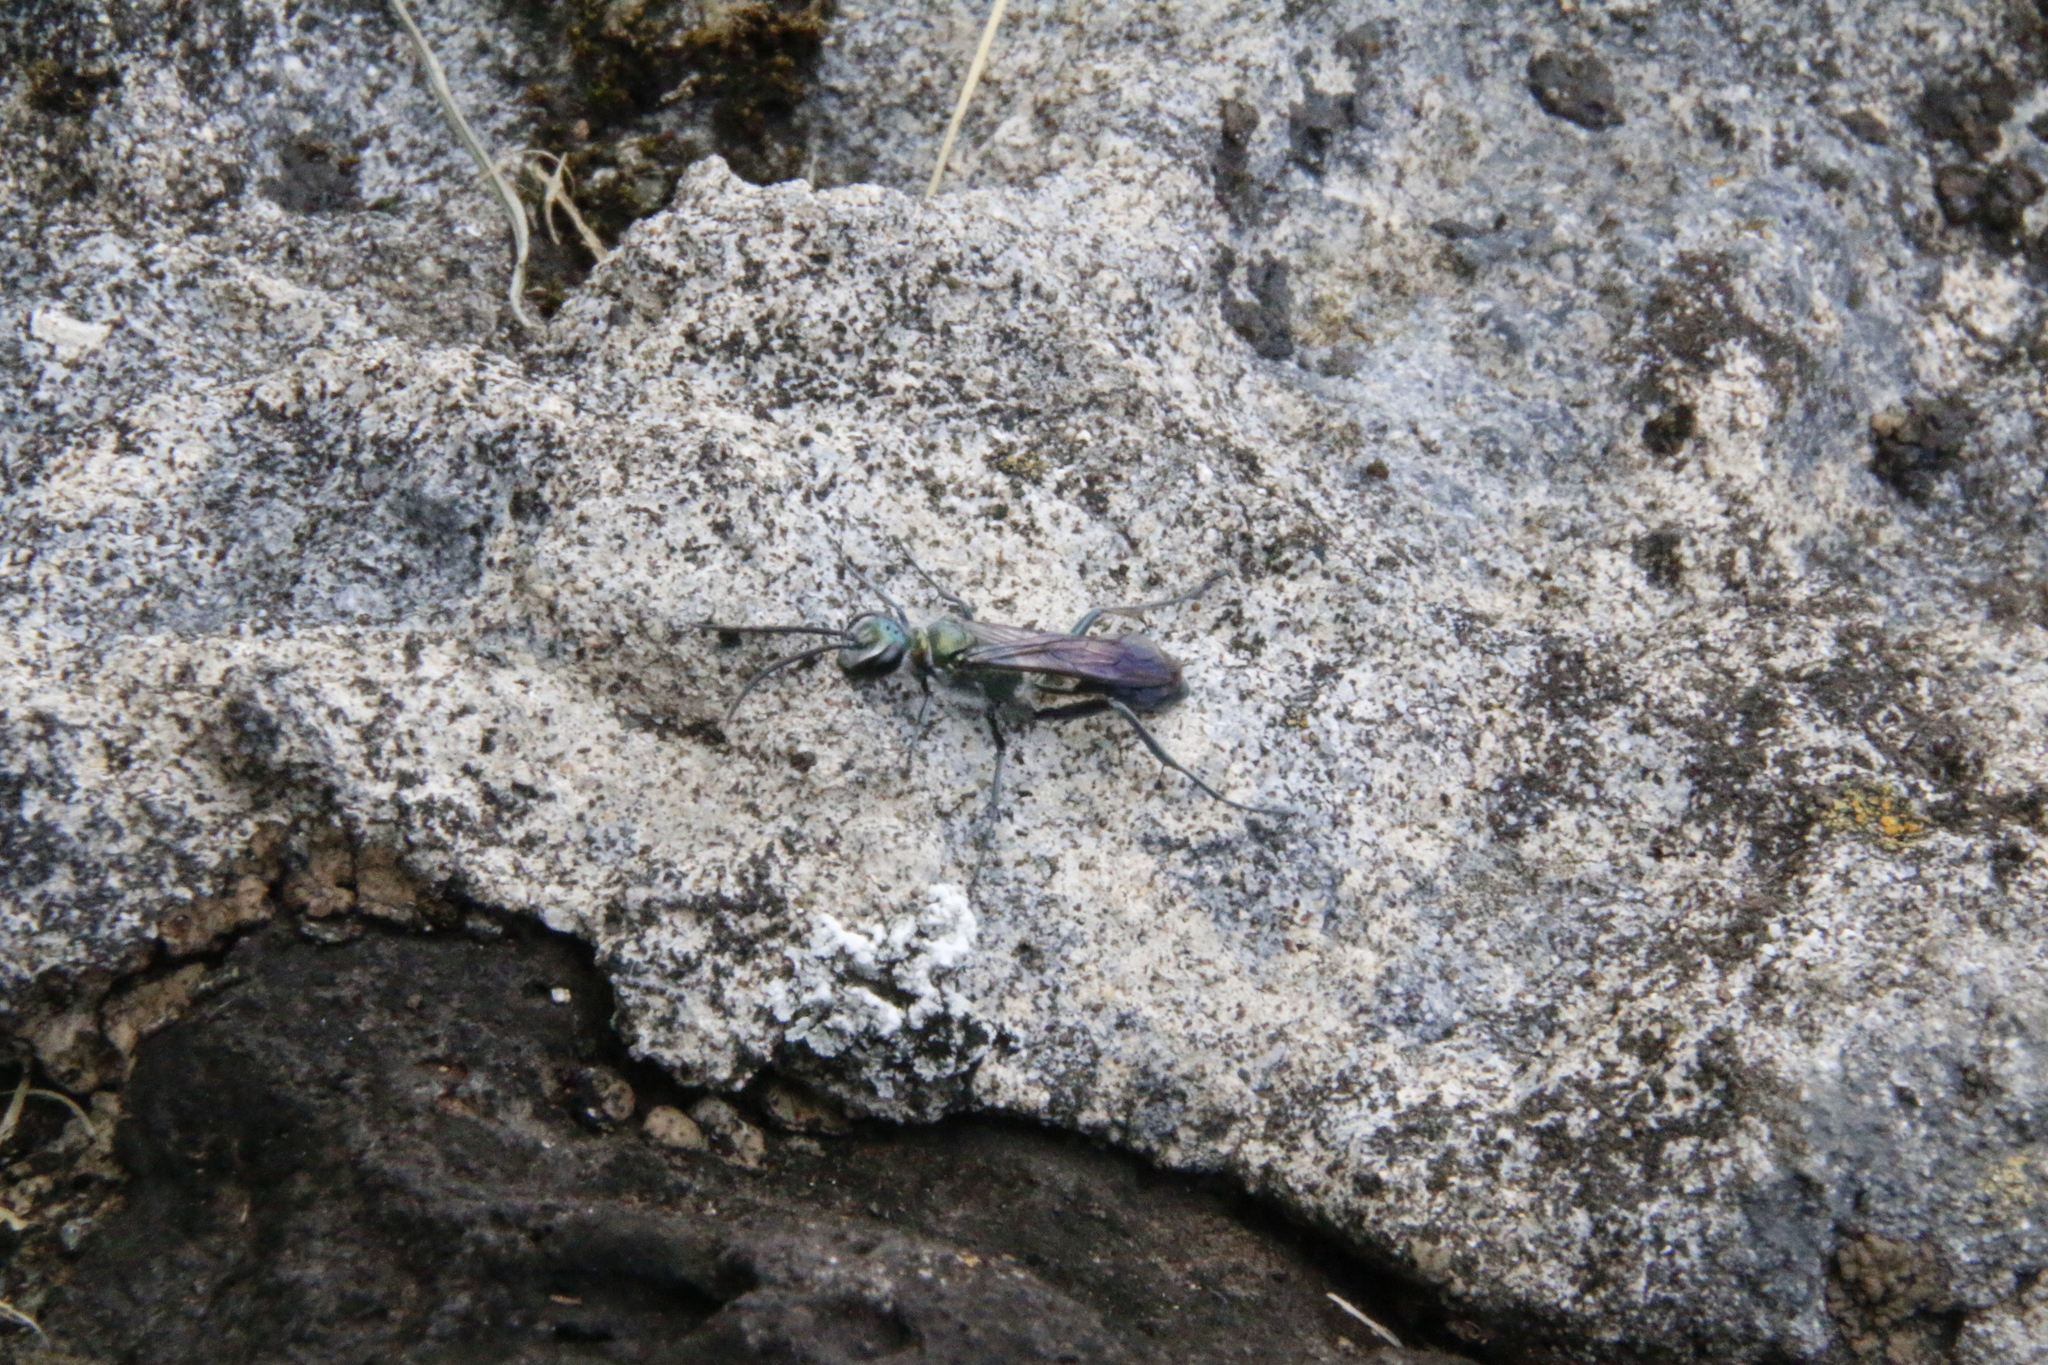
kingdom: Animalia
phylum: Arthropoda
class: Insecta
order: Hymenoptera
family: Sphecidae
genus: Chalybion
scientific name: Chalybion bengalense
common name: Mud dauber
